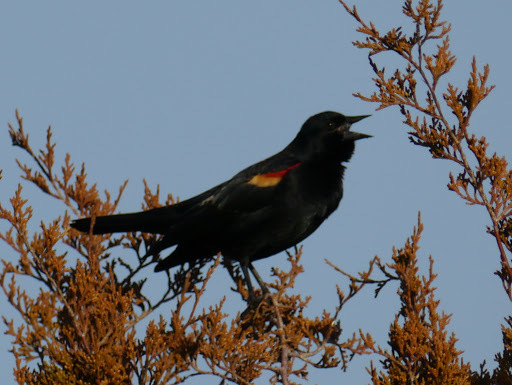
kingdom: Animalia
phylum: Chordata
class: Aves
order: Passeriformes
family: Icteridae
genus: Agelaius
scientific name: Agelaius phoeniceus
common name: Red-winged blackbird
